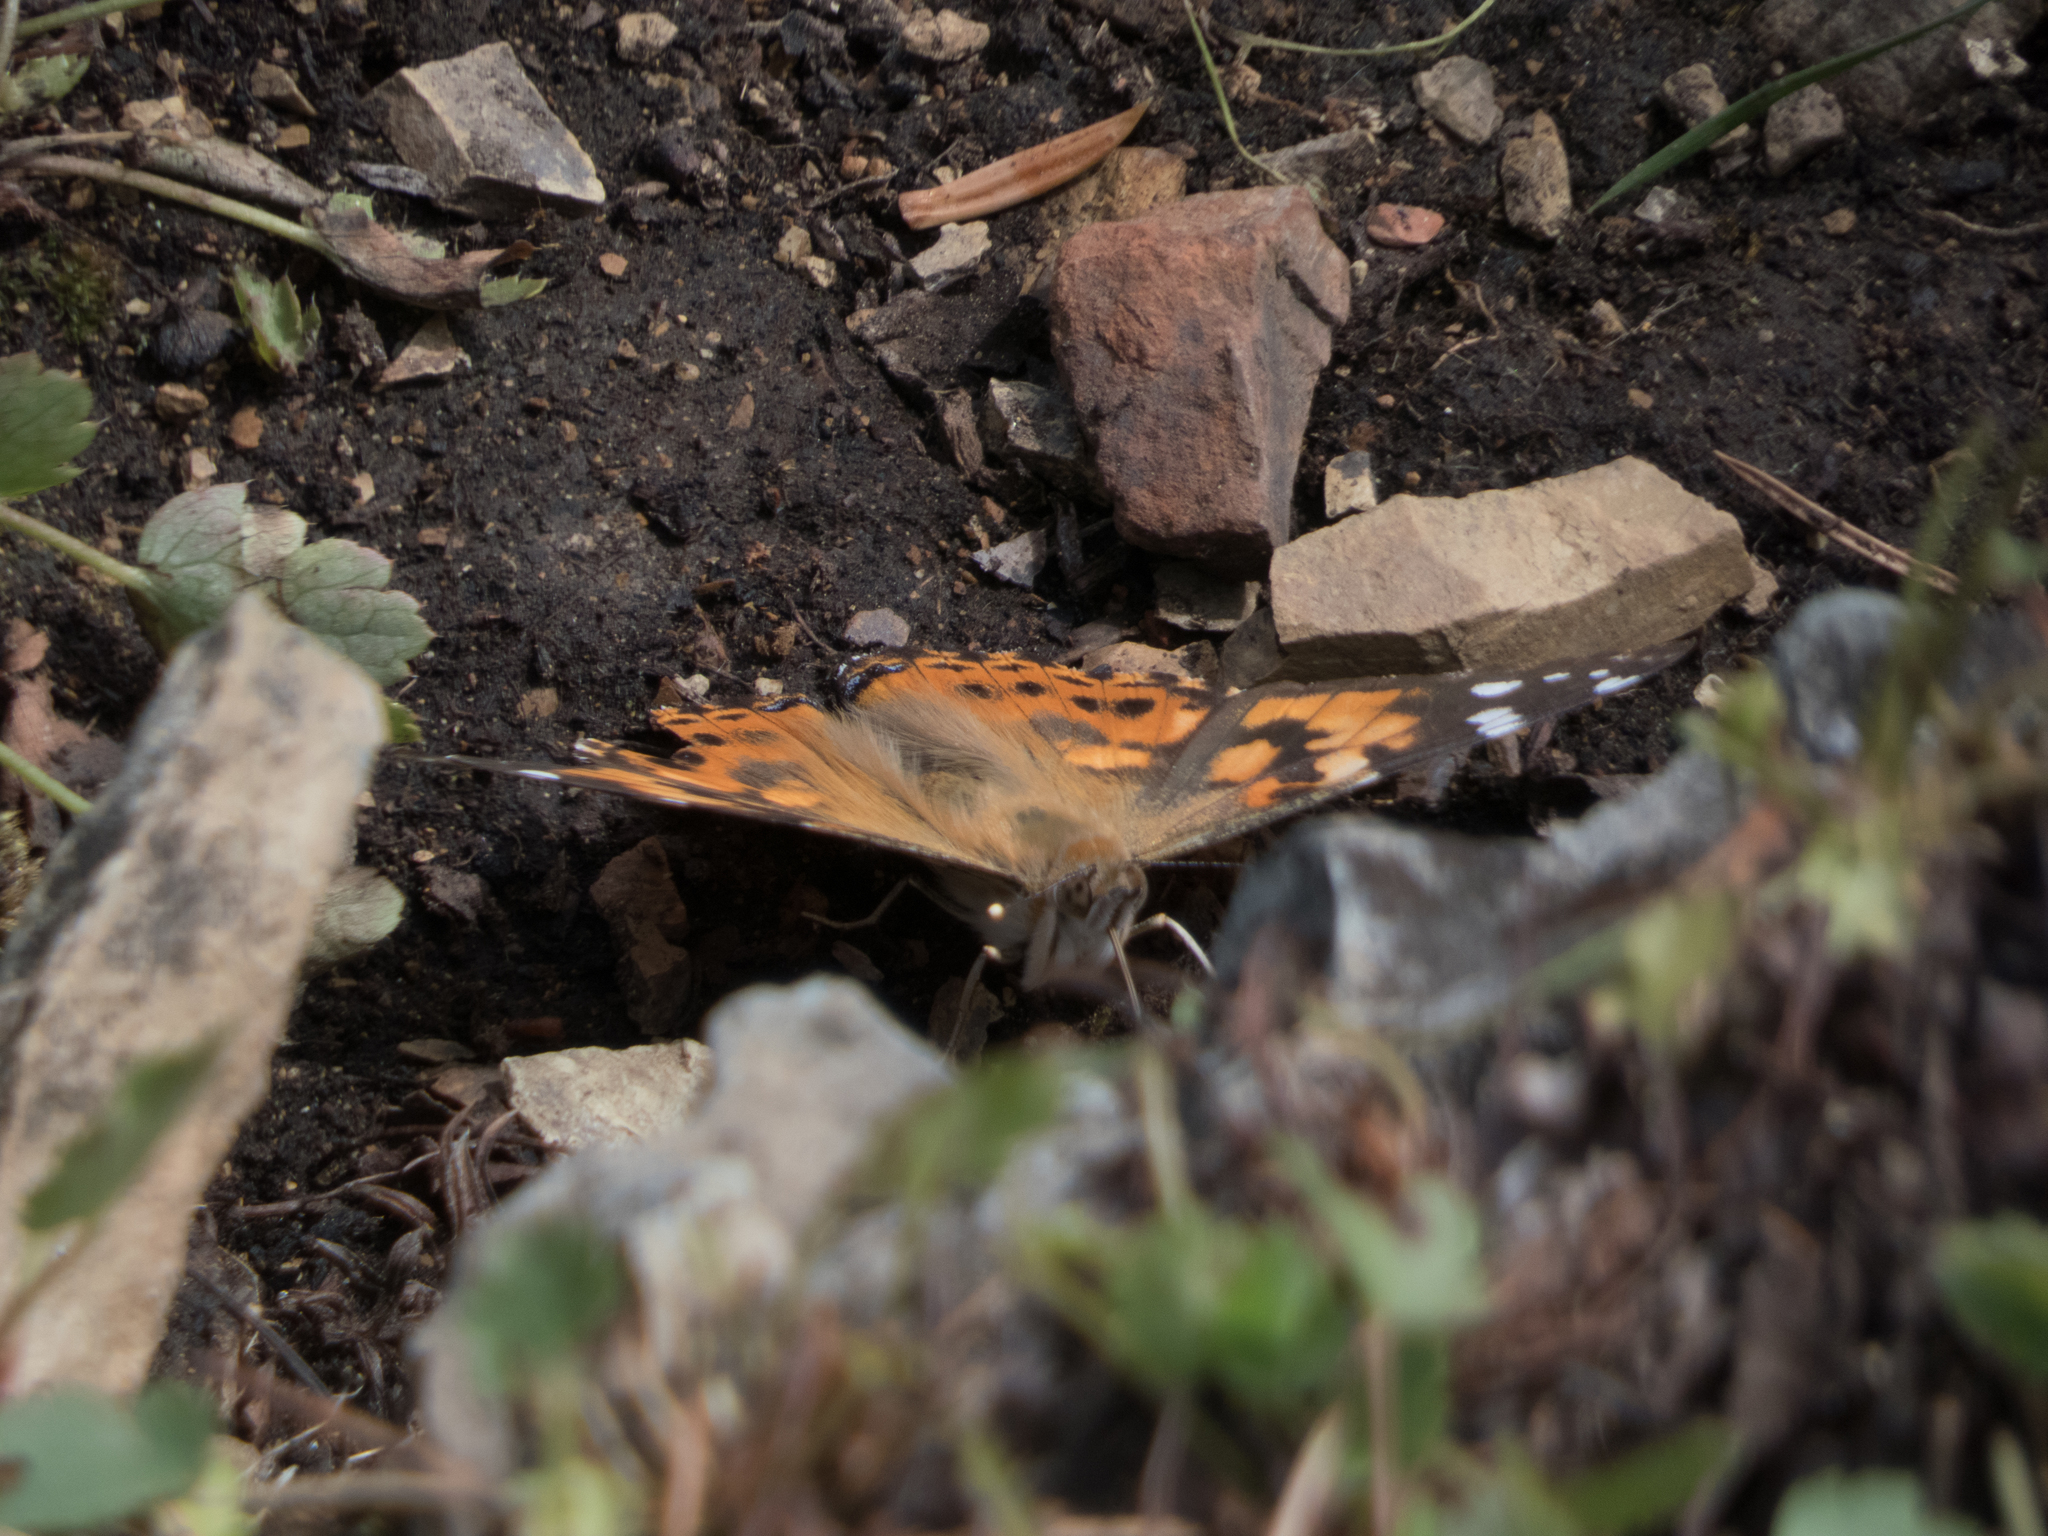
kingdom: Animalia
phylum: Arthropoda
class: Insecta
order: Lepidoptera
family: Nymphalidae
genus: Vanessa
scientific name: Vanessa cardui
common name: Painted lady
